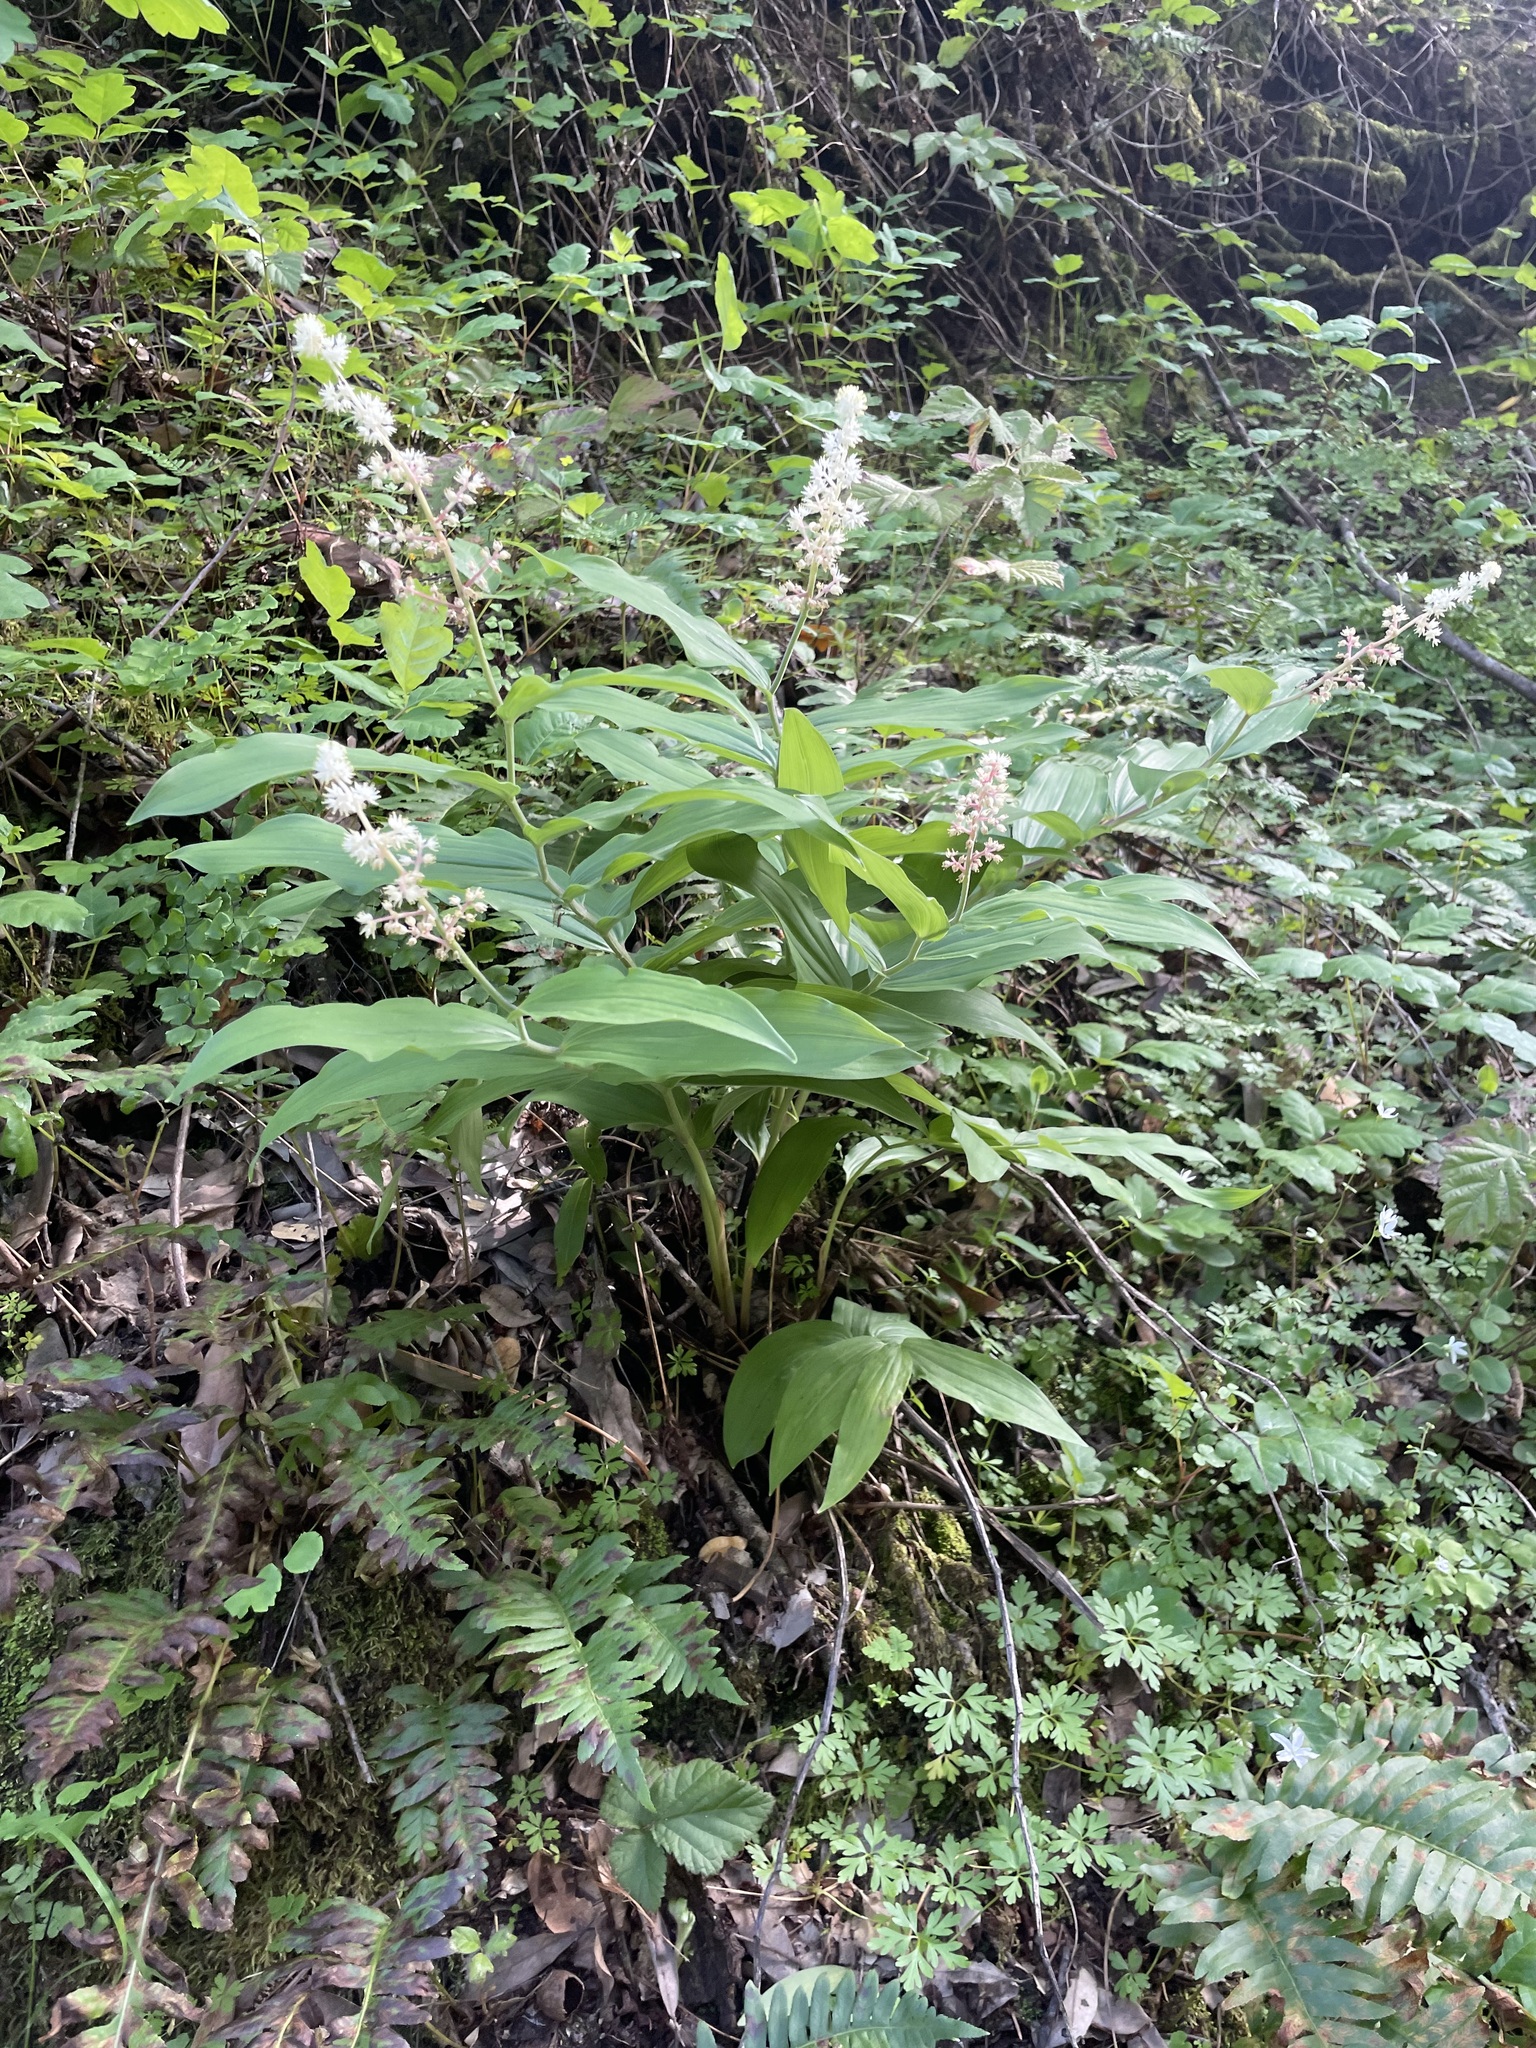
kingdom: Plantae
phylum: Tracheophyta
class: Liliopsida
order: Asparagales
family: Asparagaceae
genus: Maianthemum
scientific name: Maianthemum racemosum
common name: False spikenard
